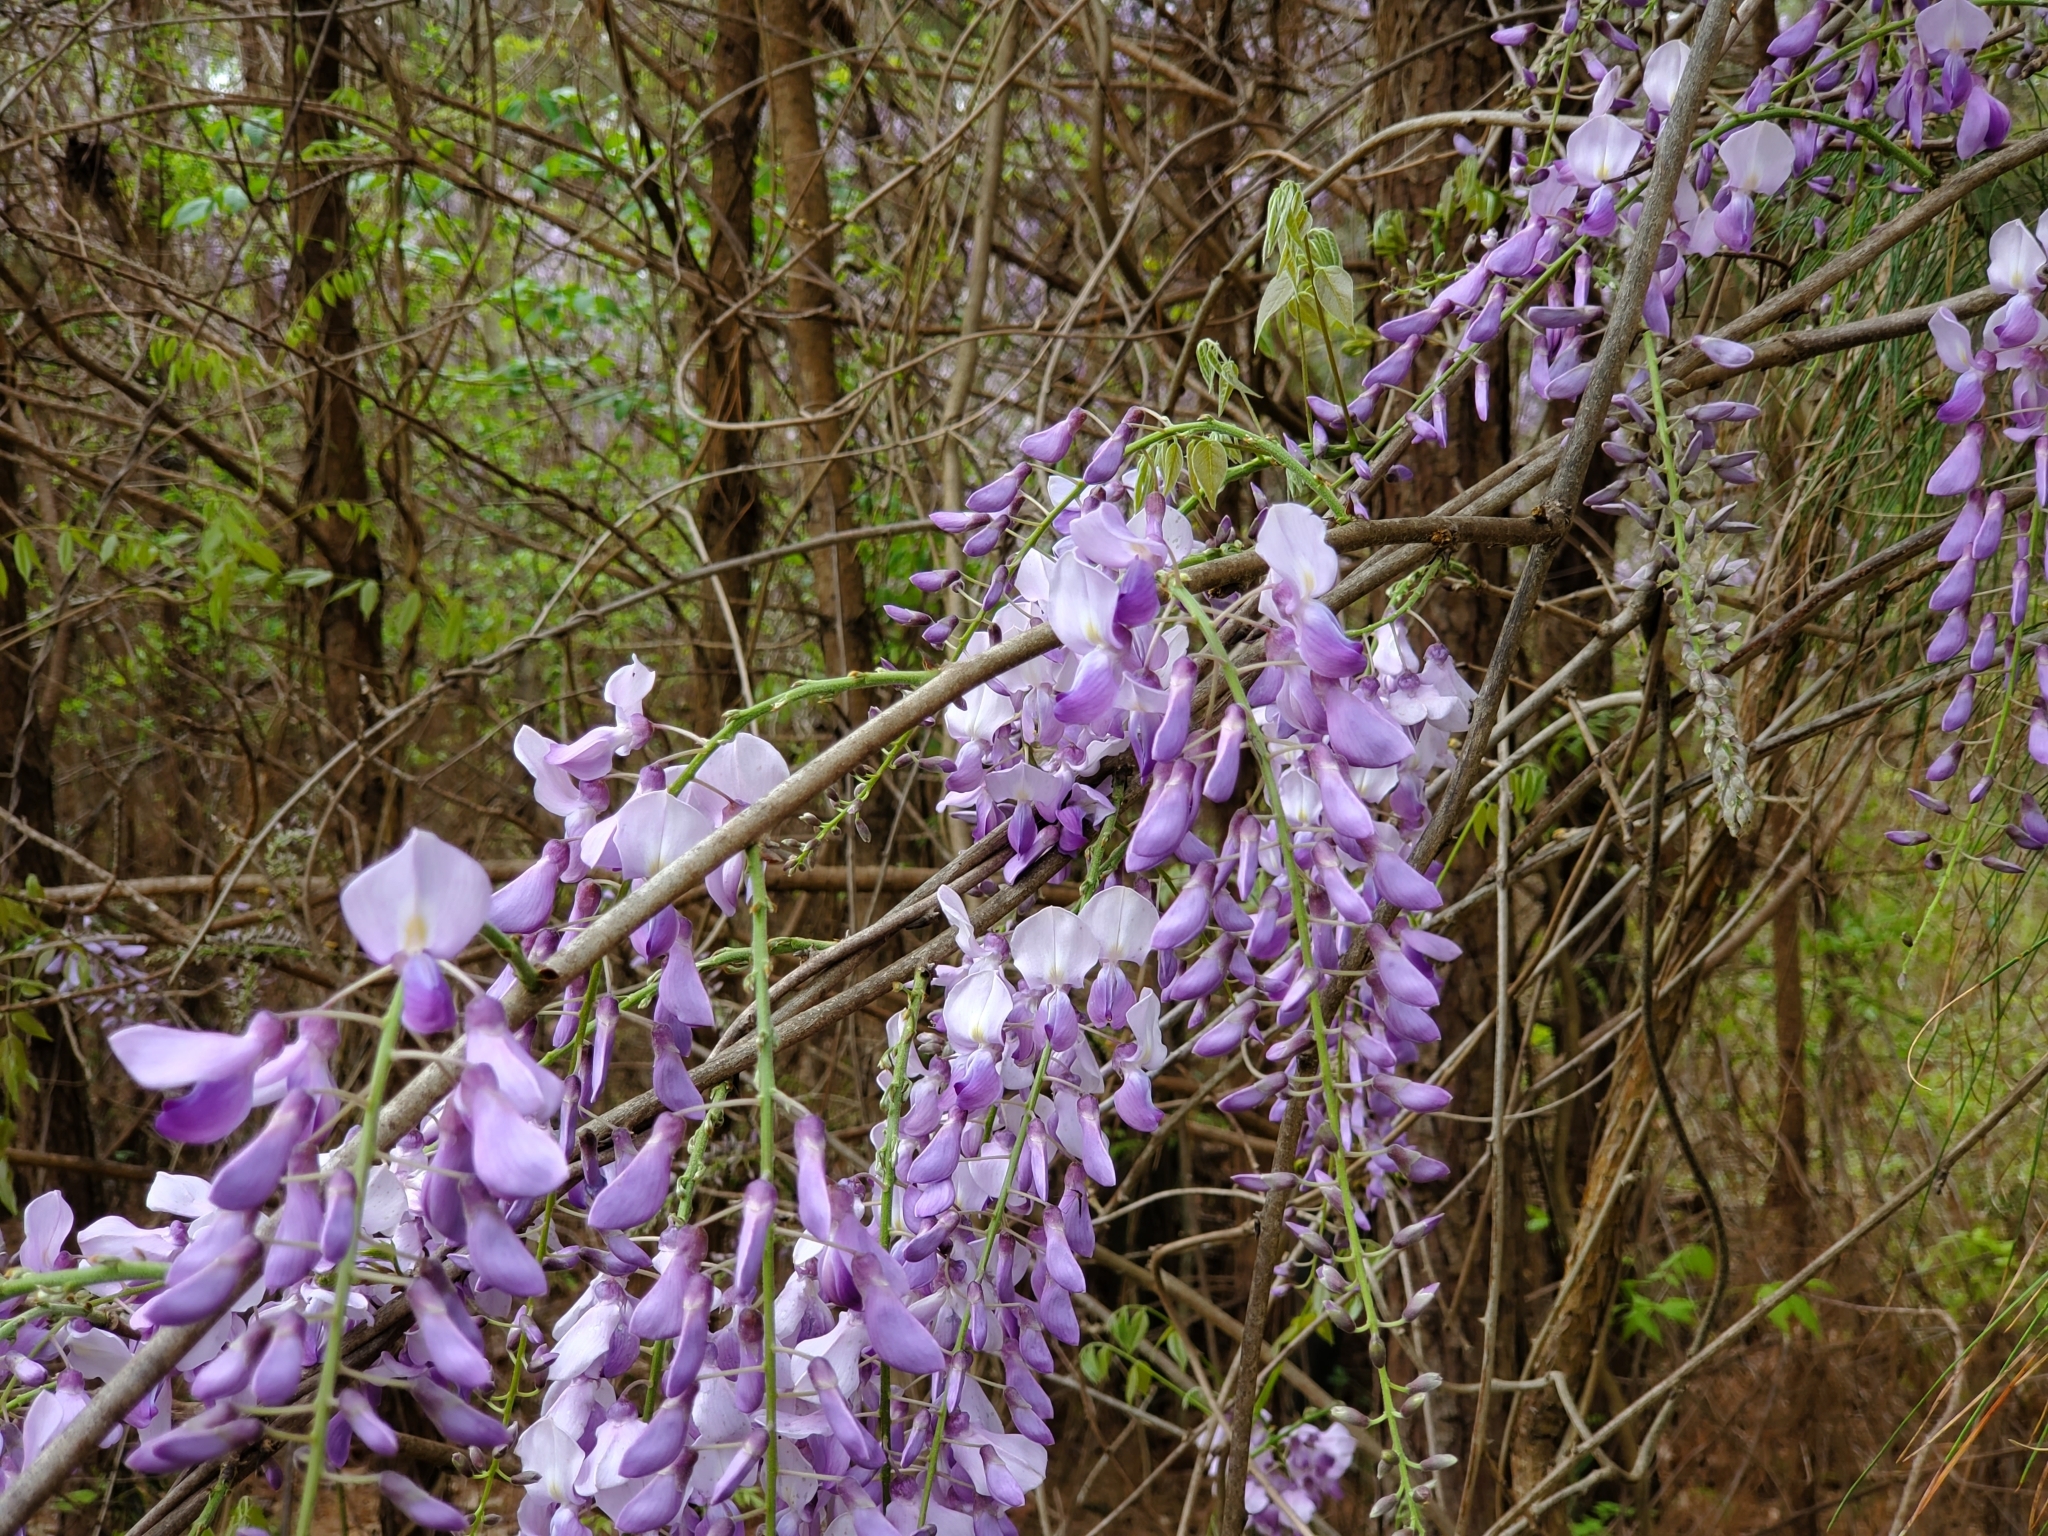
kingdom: Plantae
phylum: Tracheophyta
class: Magnoliopsida
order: Fabales
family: Fabaceae
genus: Wisteria
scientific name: Wisteria sinensis
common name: Chinese wisteria
